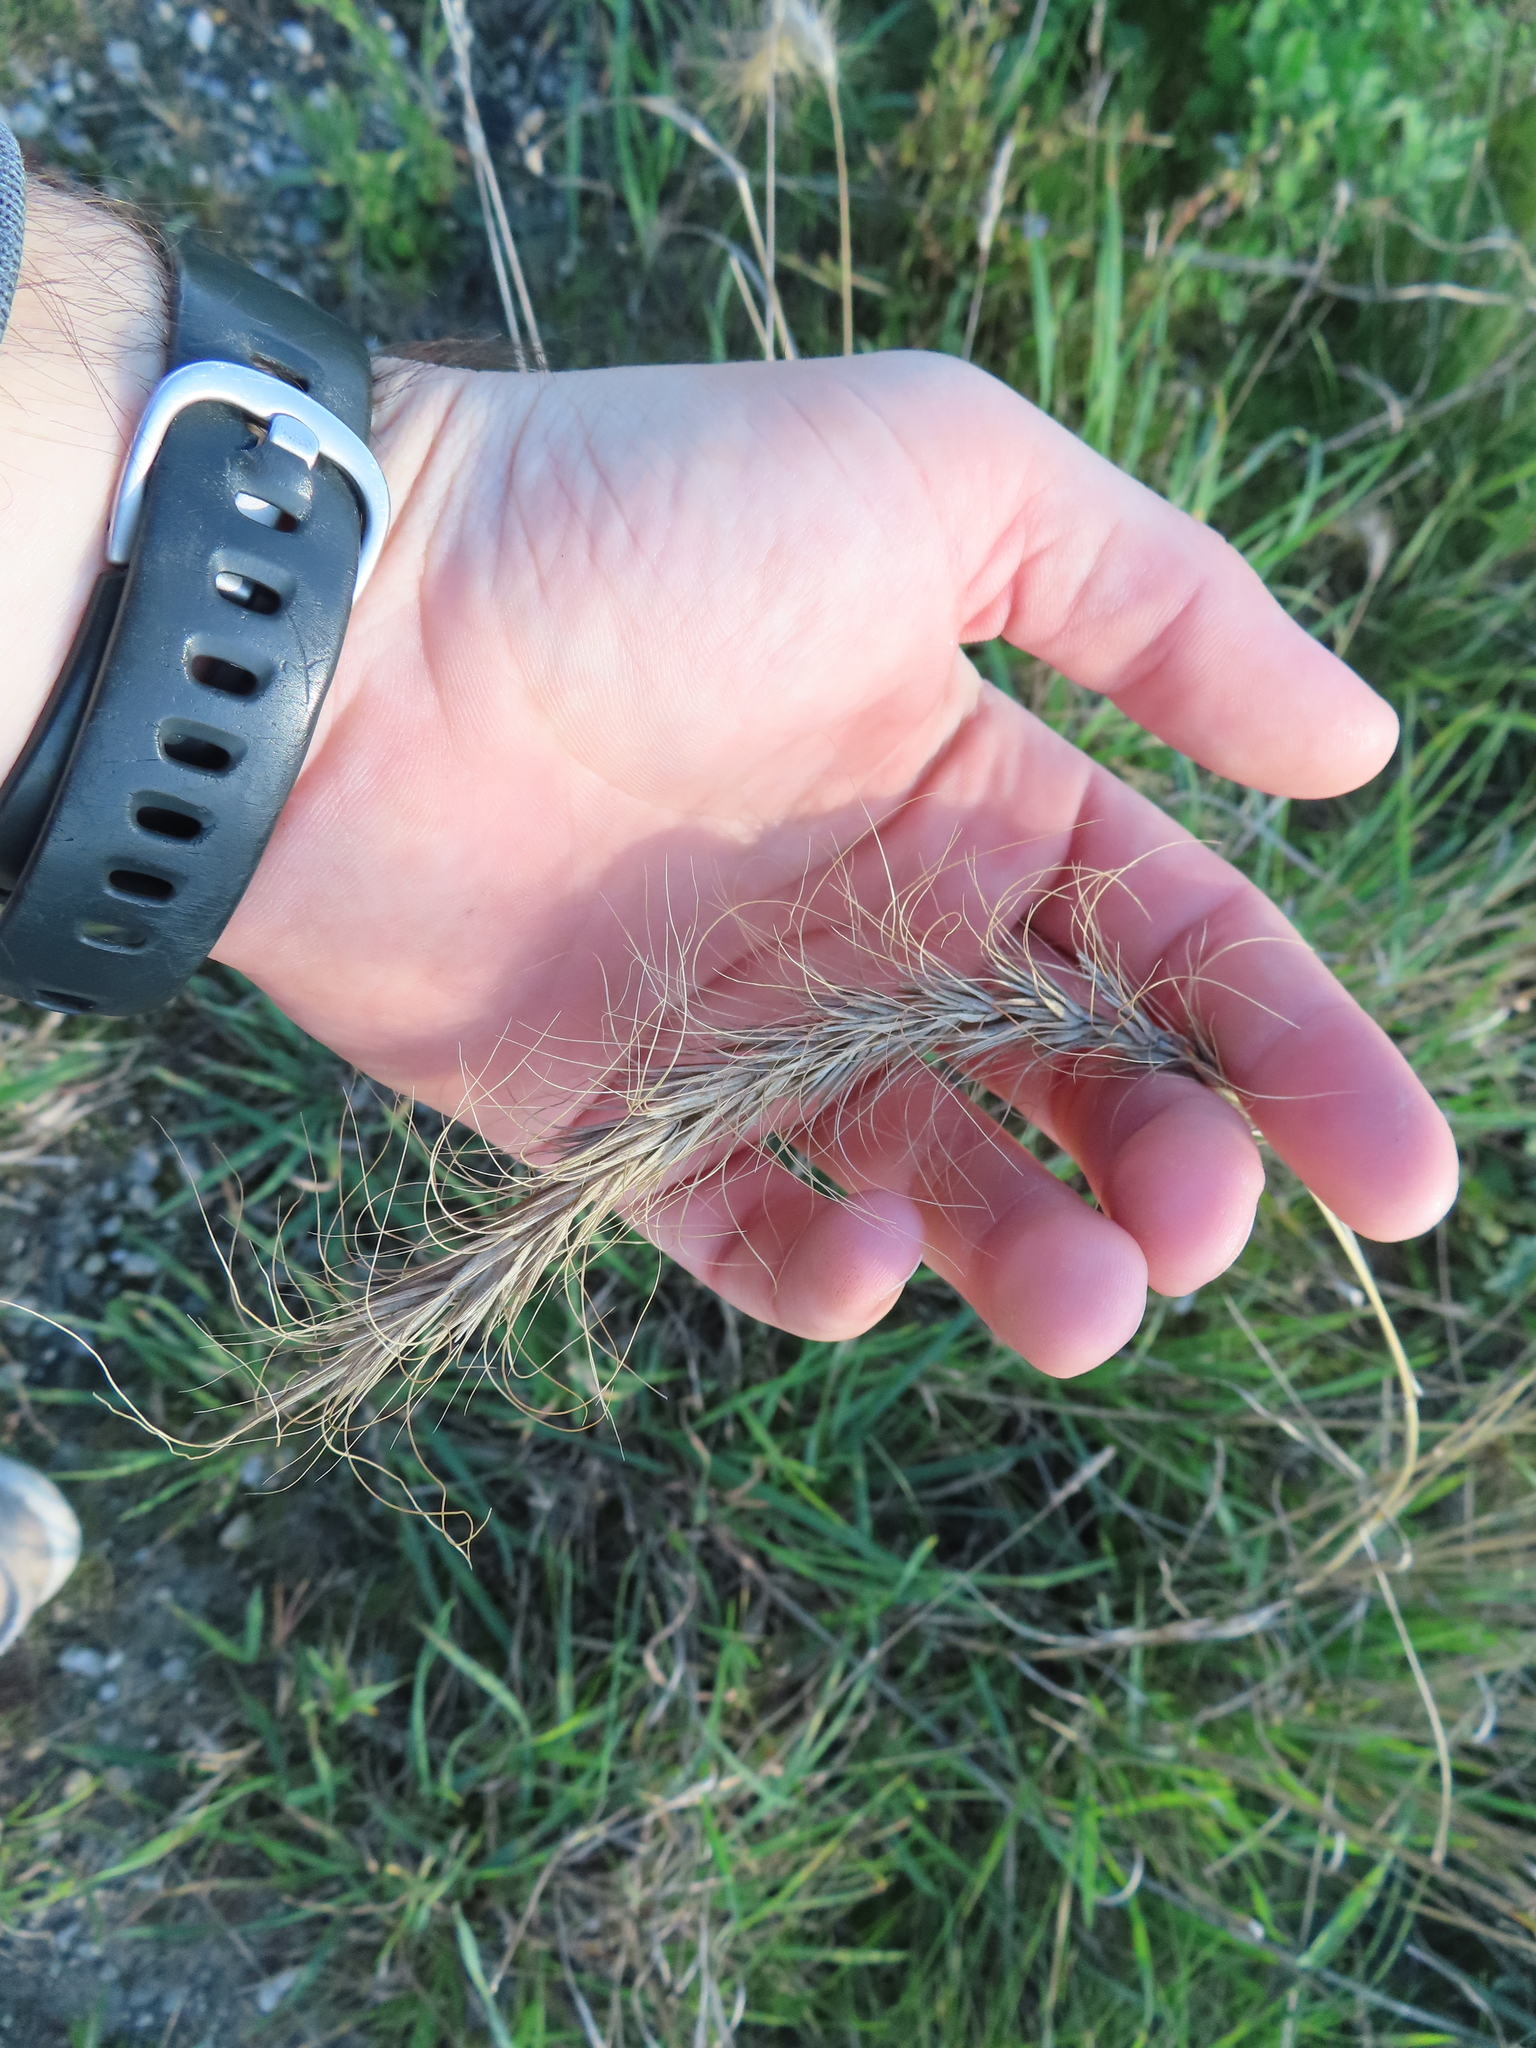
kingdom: Plantae
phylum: Tracheophyta
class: Liliopsida
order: Poales
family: Poaceae
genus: Elymus
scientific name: Elymus canadensis
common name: Canada wild rye
